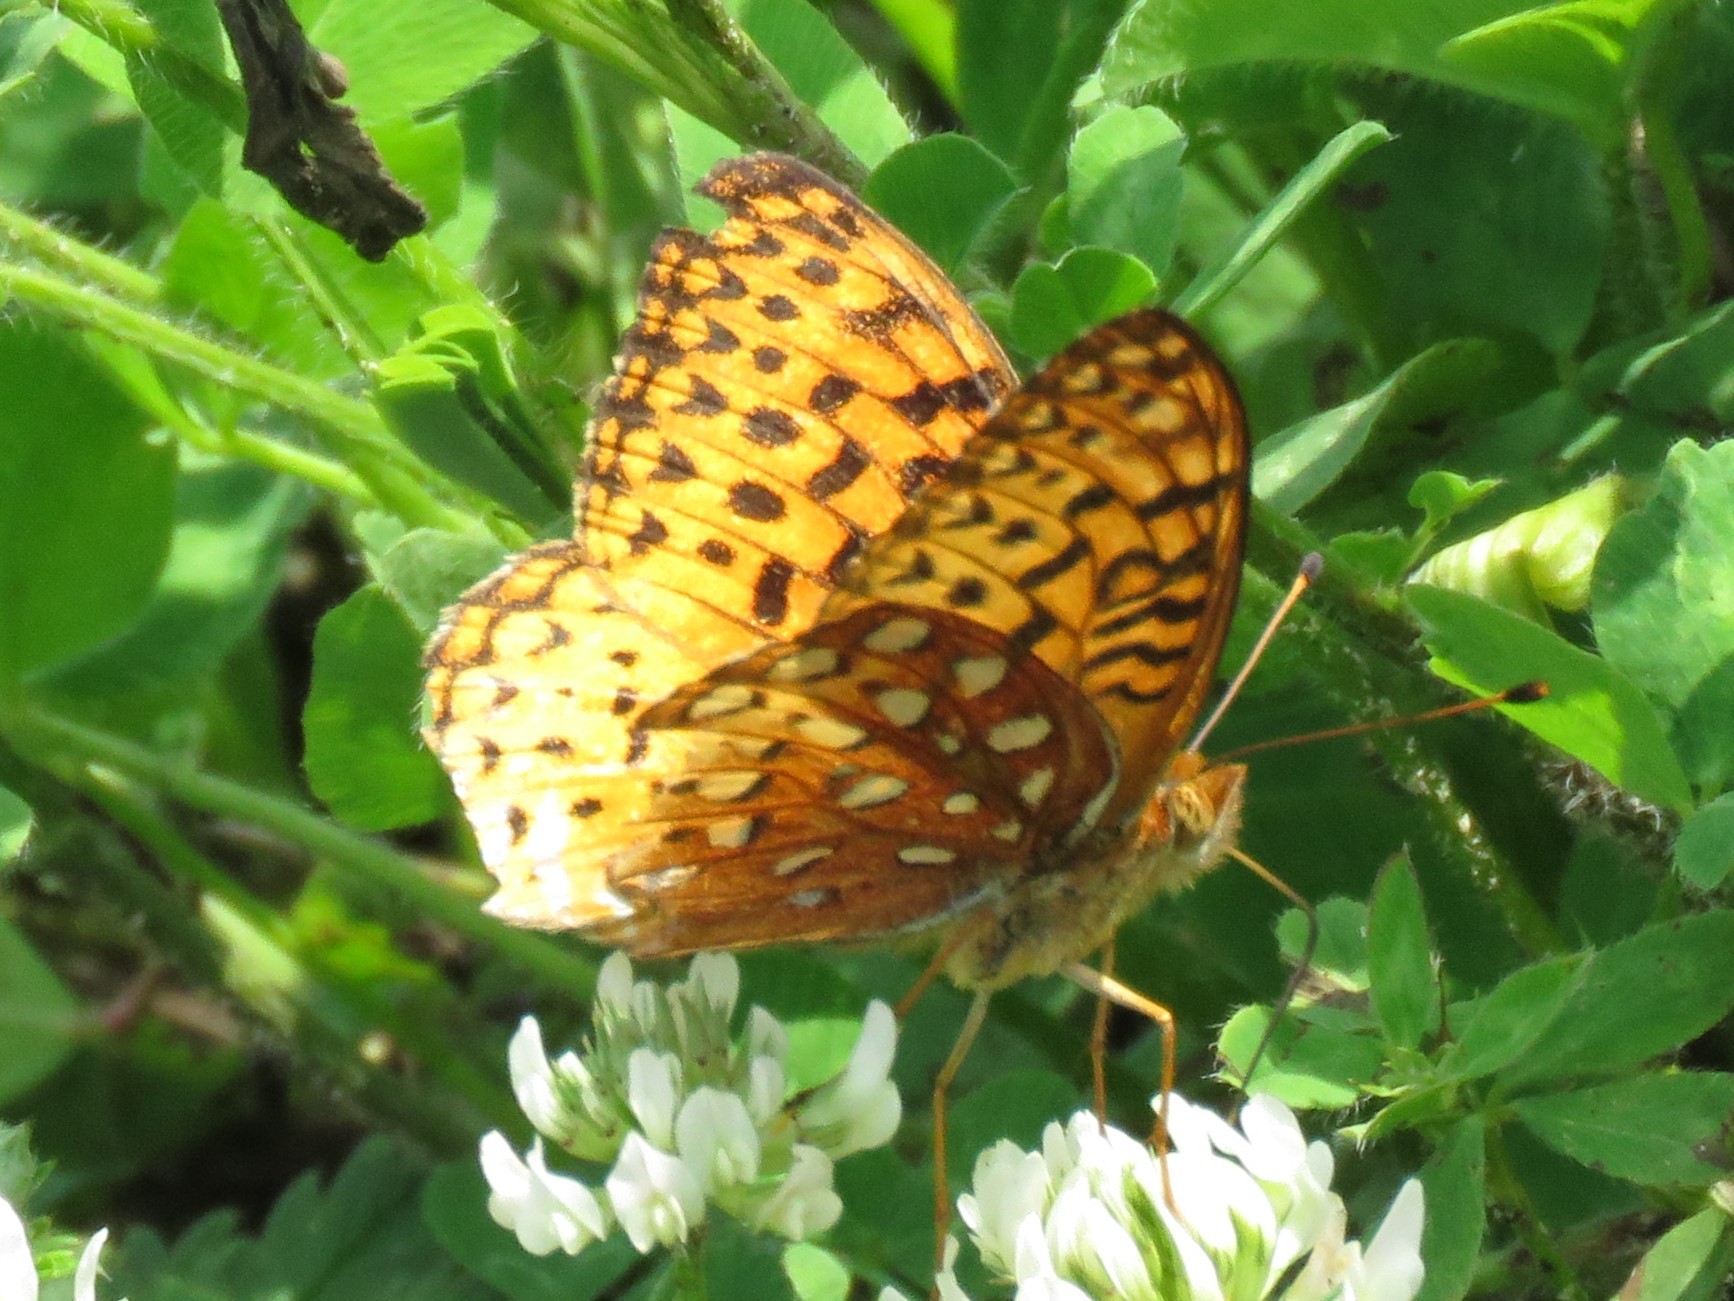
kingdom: Animalia
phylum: Arthropoda
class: Insecta
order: Lepidoptera
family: Nymphalidae
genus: Speyeria
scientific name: Speyeria cybele
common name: Great spangled fritillary
